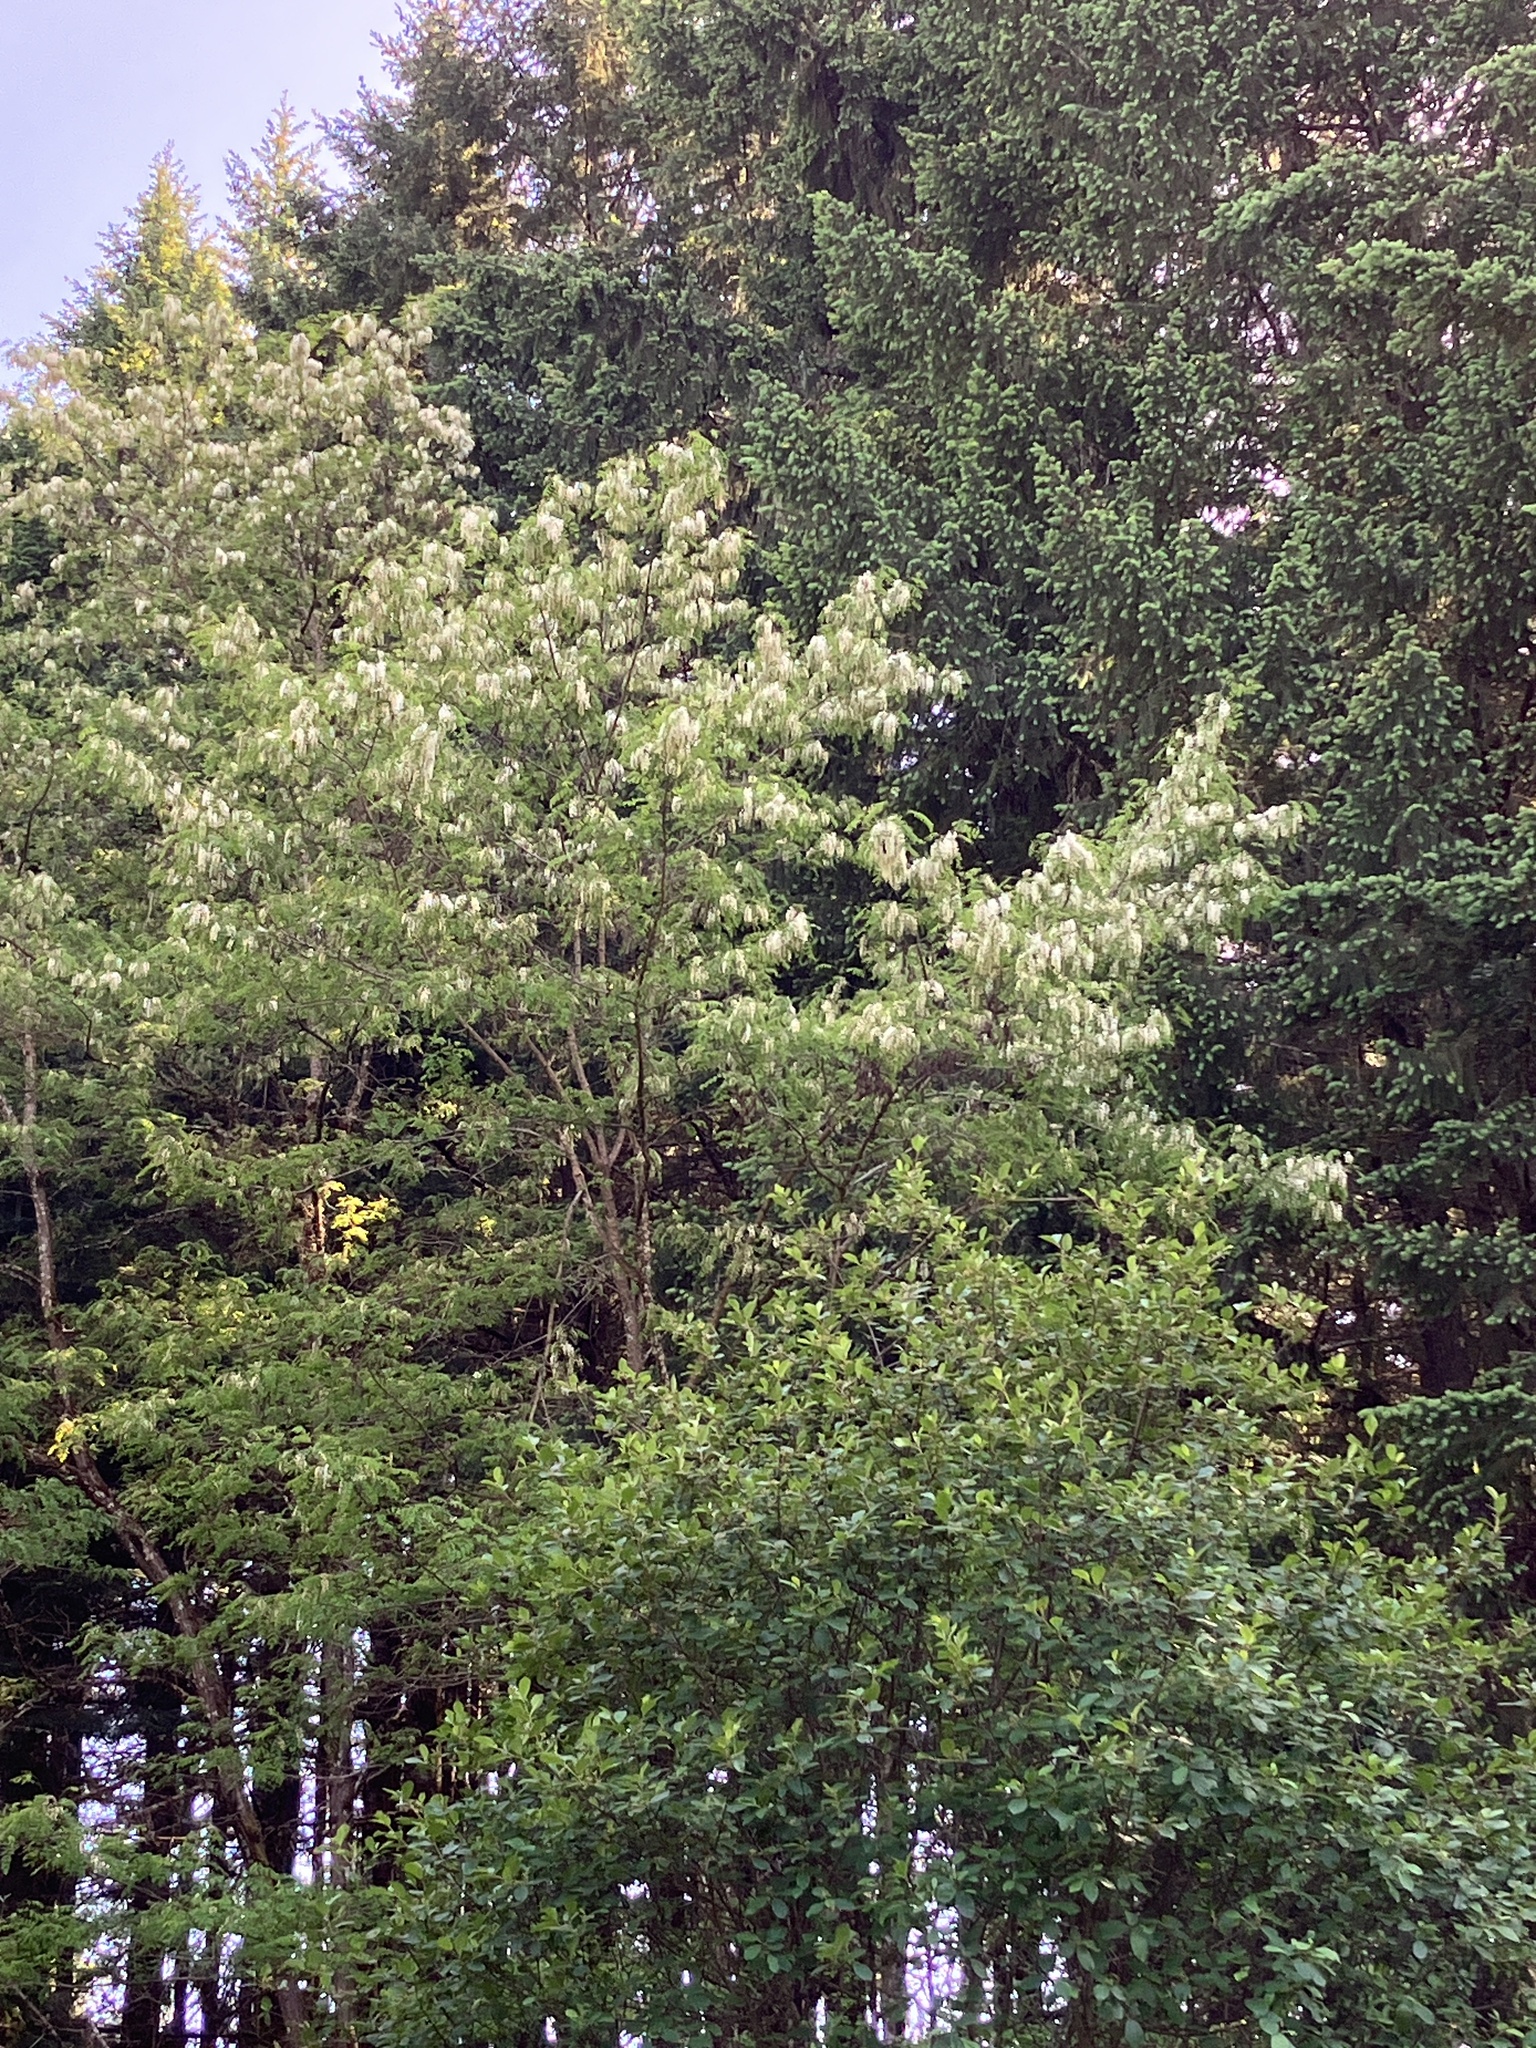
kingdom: Plantae
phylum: Tracheophyta
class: Magnoliopsida
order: Fabales
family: Fabaceae
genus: Robinia
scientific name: Robinia pseudoacacia
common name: Black locust
